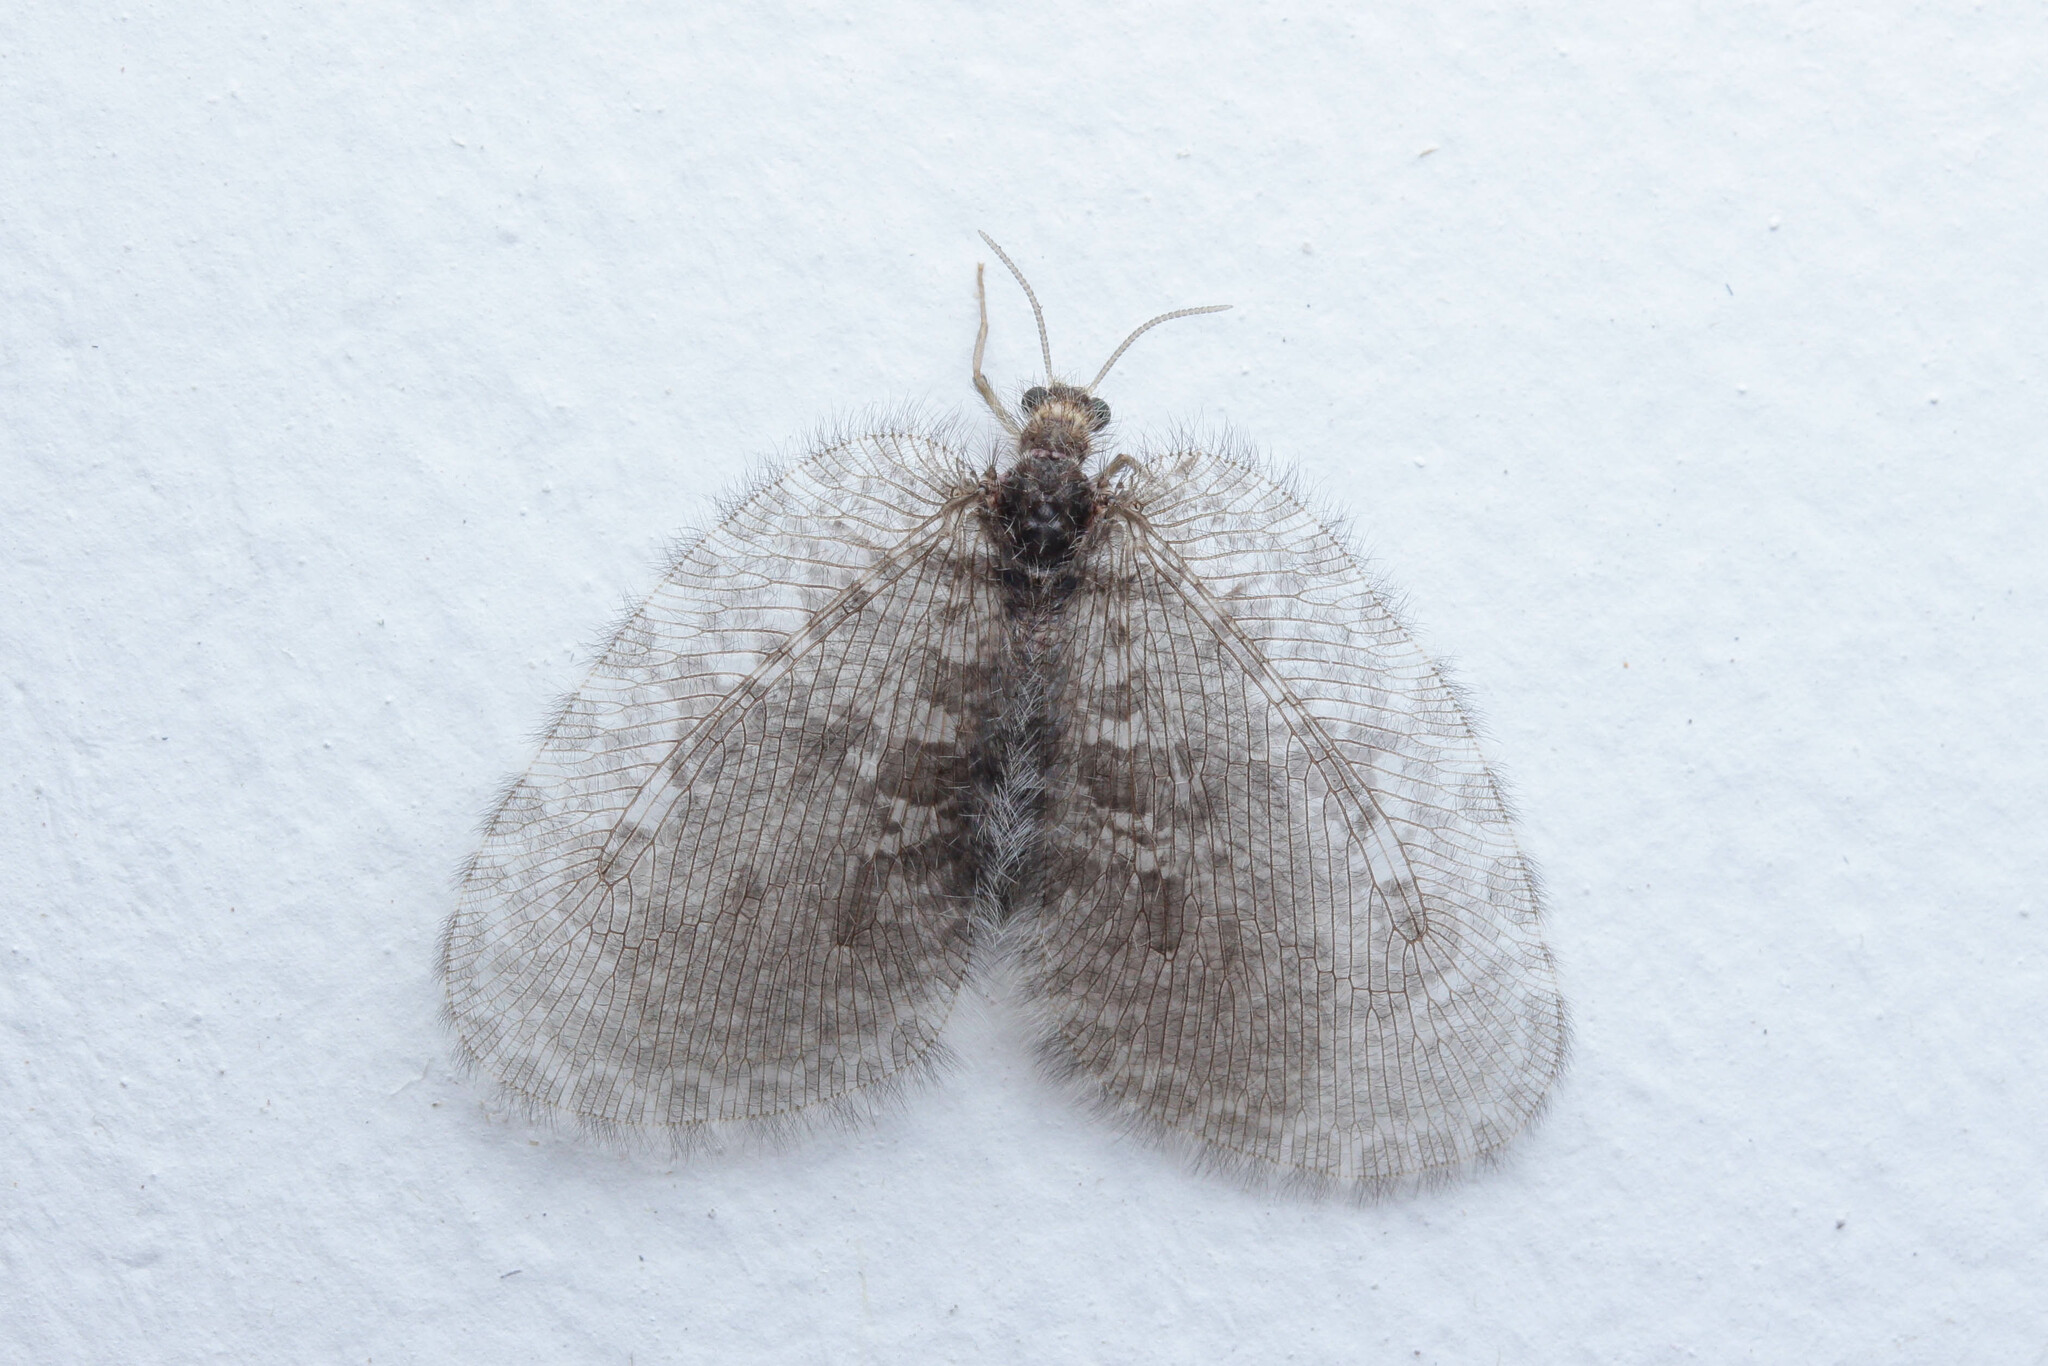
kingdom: Animalia
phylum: Arthropoda
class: Insecta
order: Neuroptera
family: Psychopsidae
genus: Balmes
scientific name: Balmes birmanus
